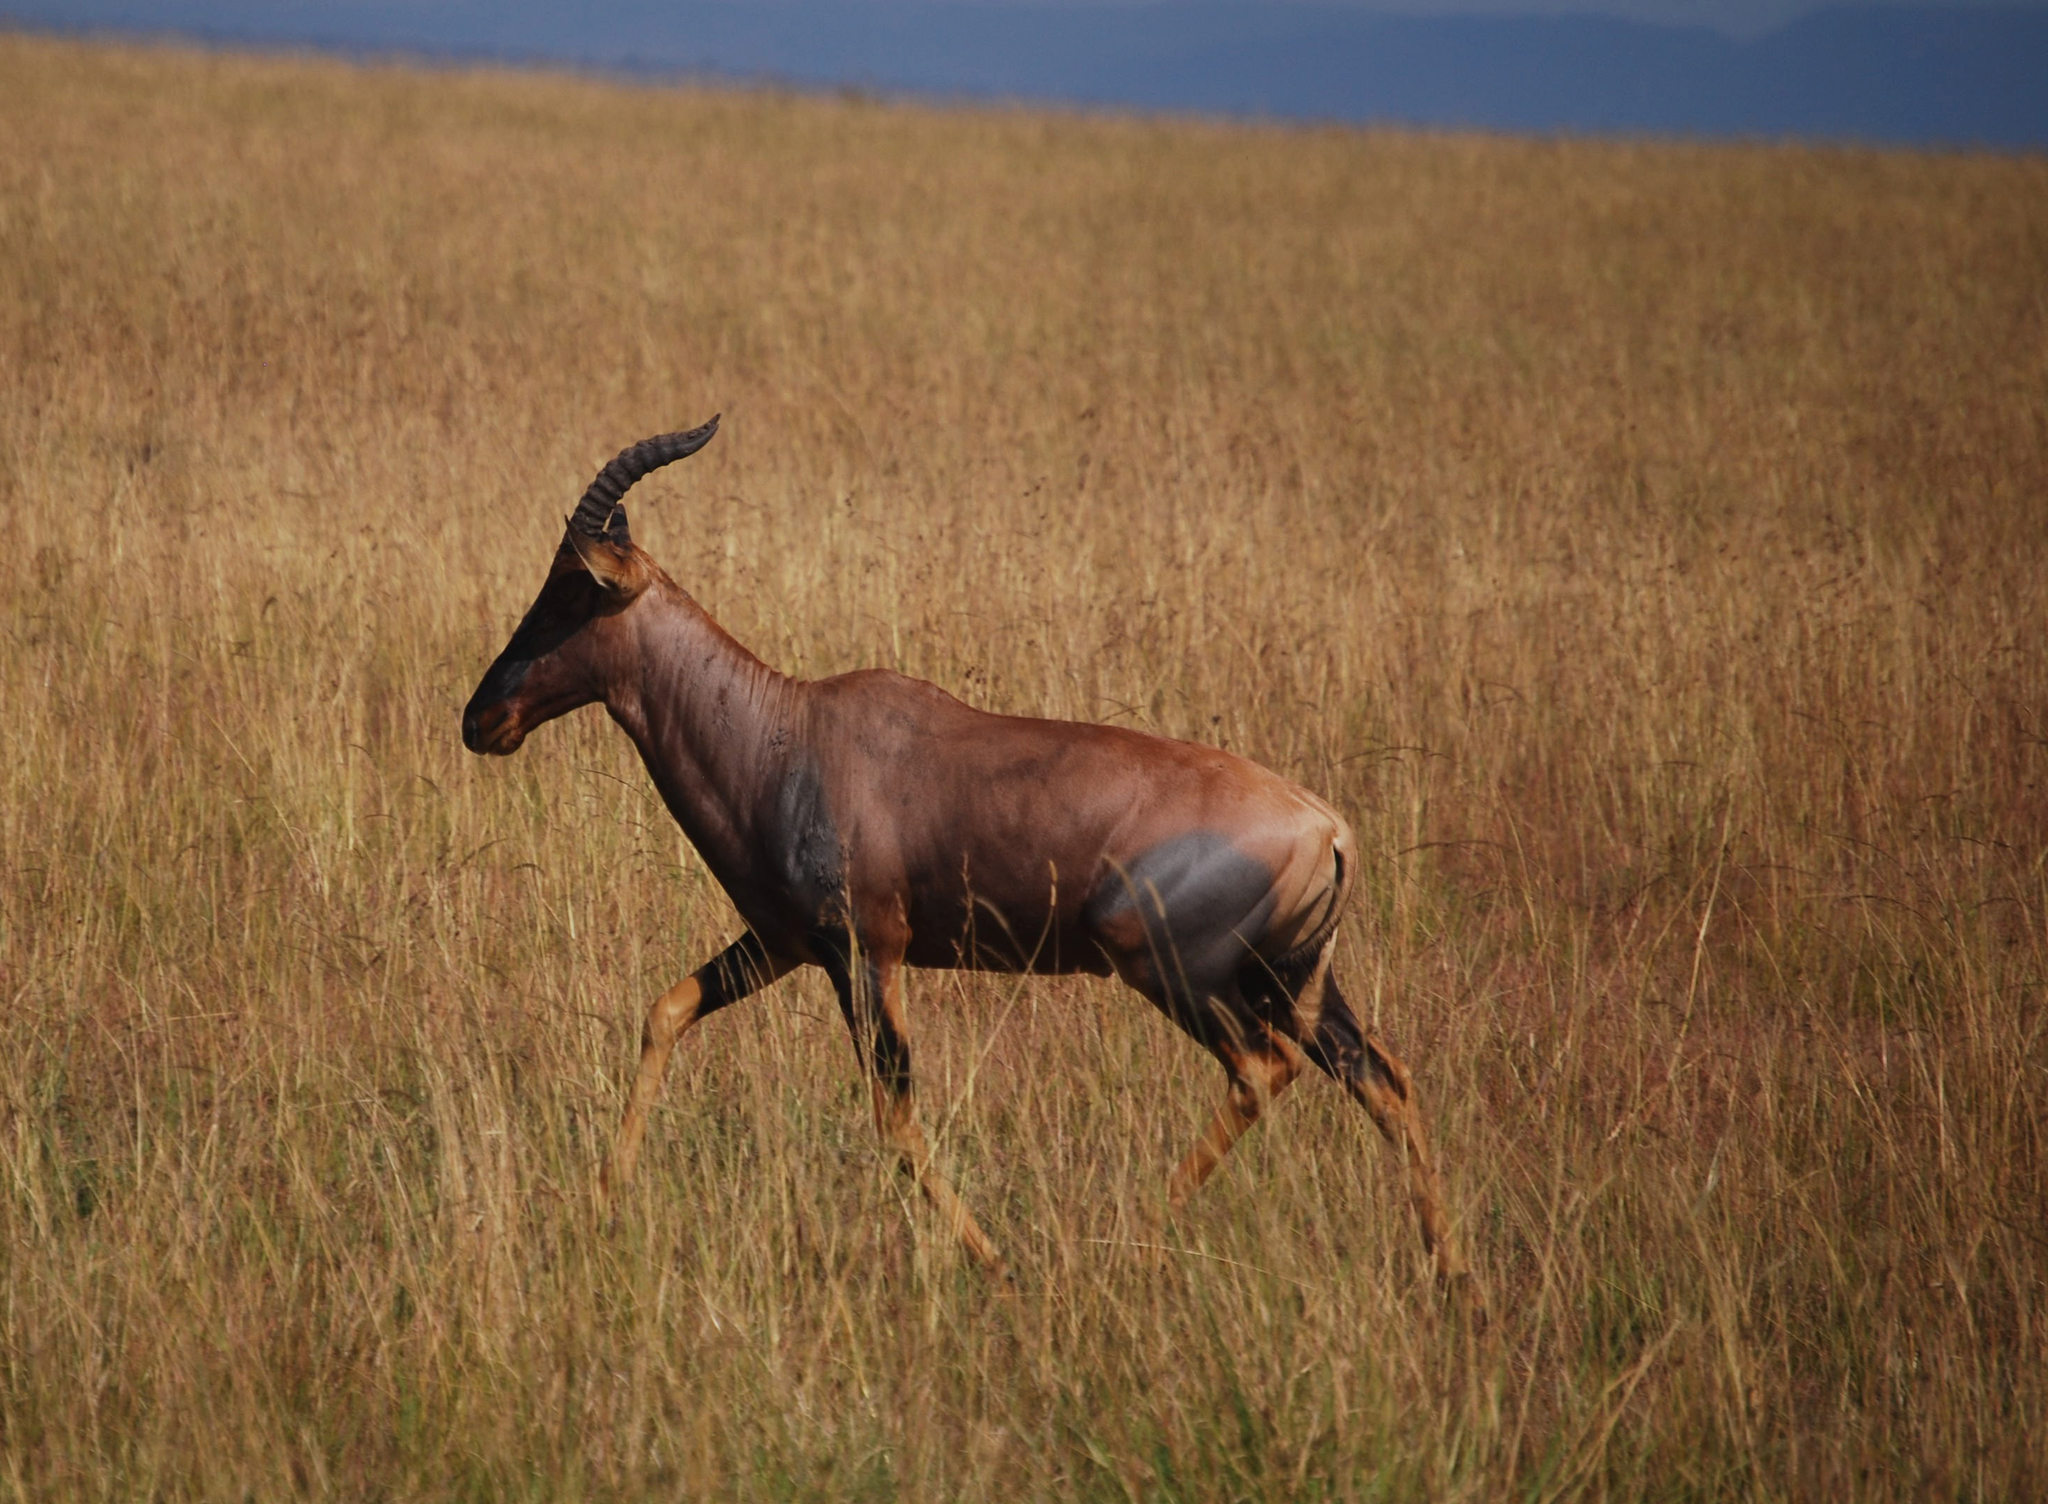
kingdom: Animalia
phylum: Chordata
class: Mammalia
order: Artiodactyla
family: Bovidae
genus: Damaliscus
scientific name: Damaliscus korrigum
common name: Topi
